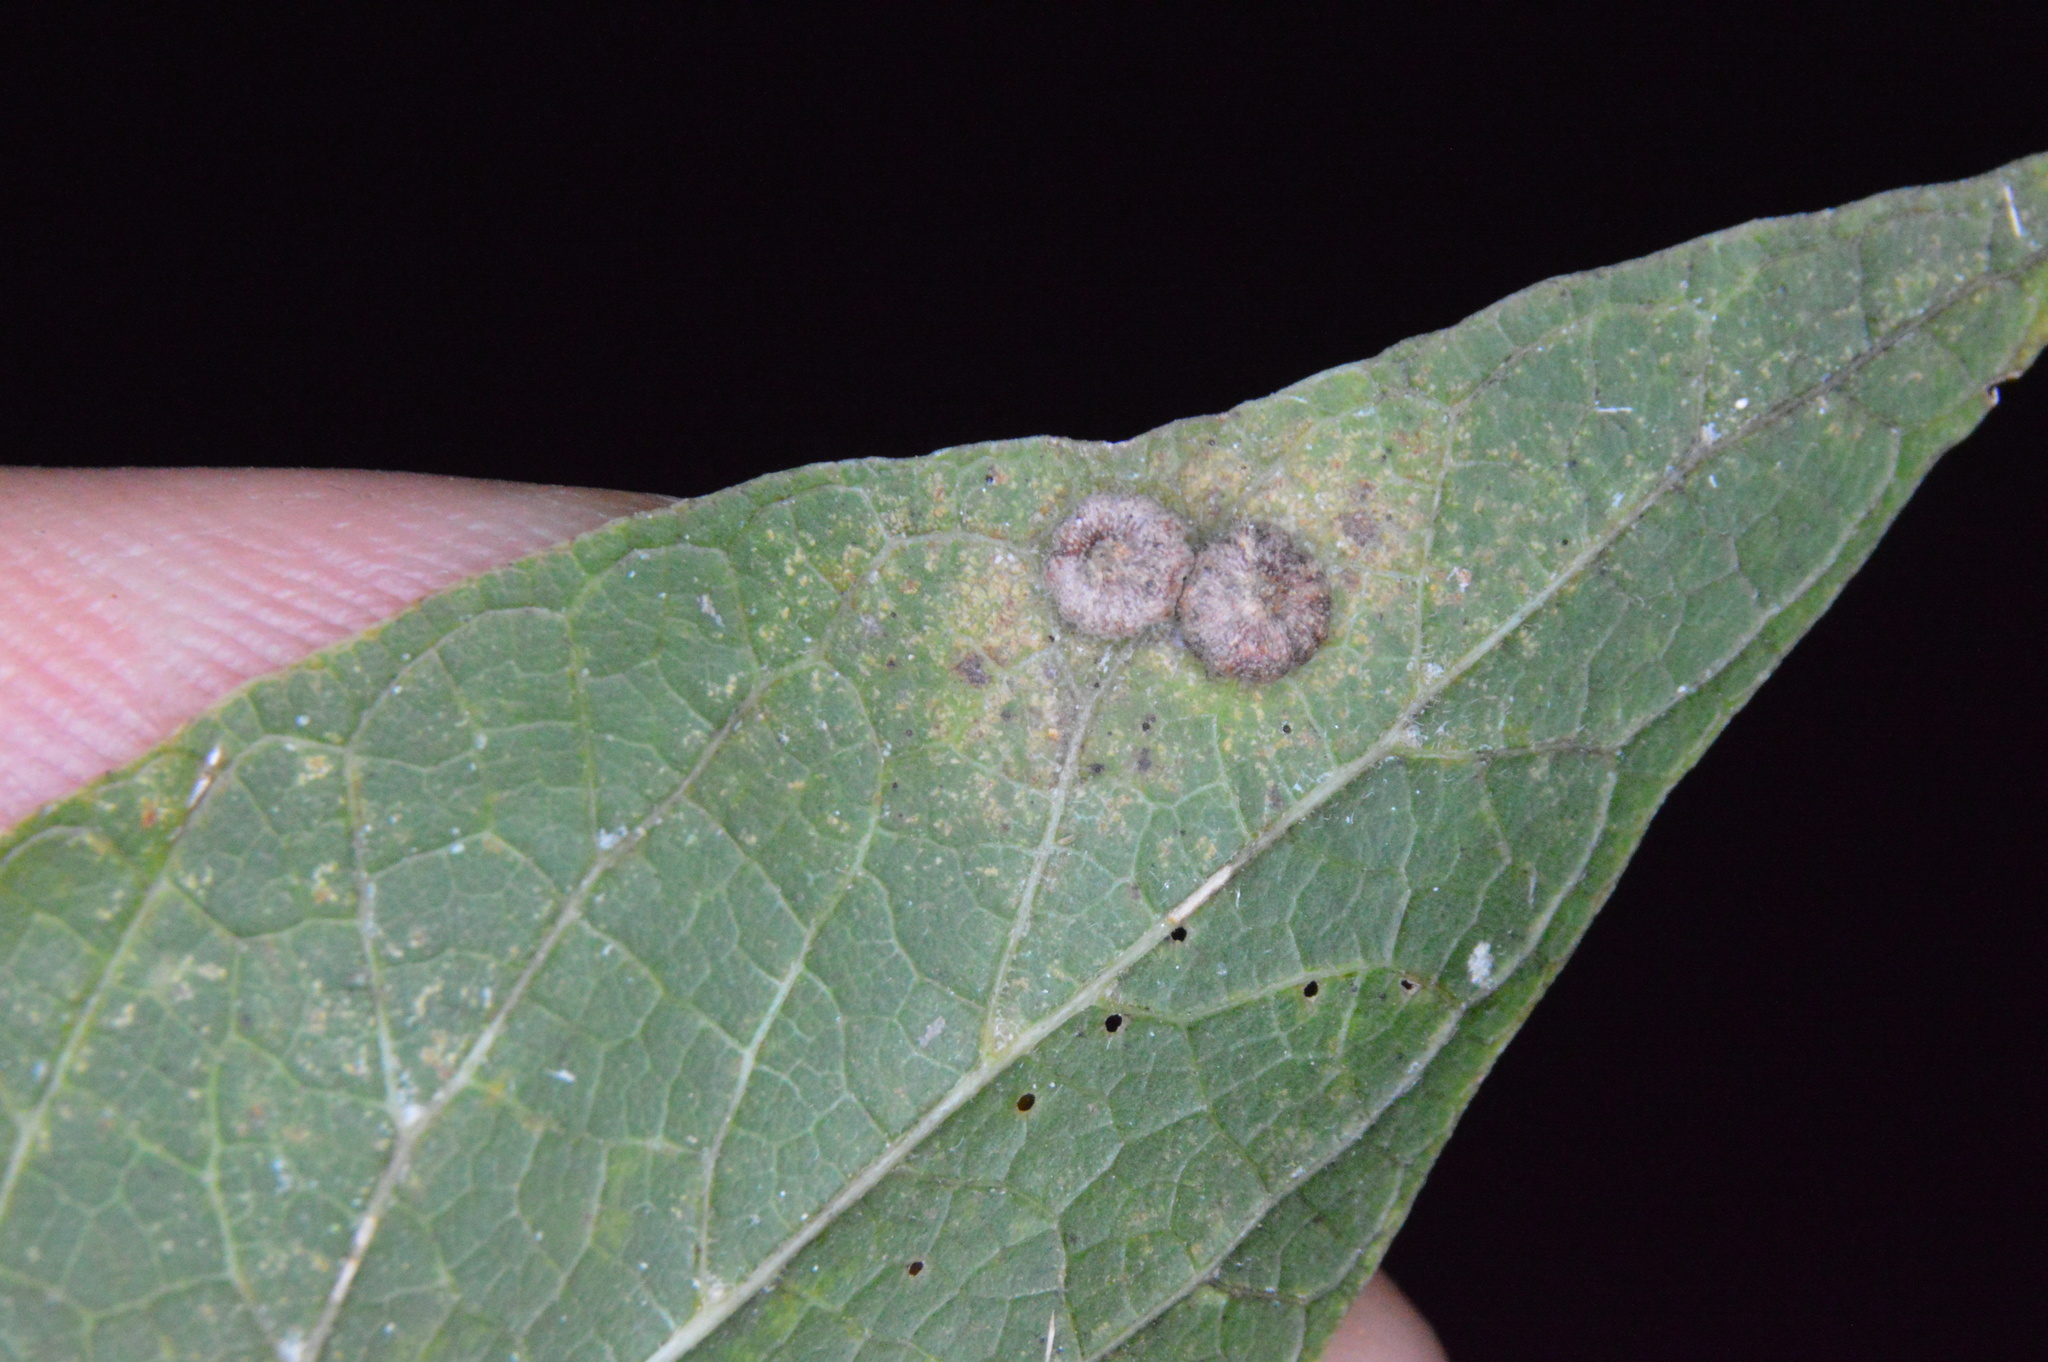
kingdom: Animalia
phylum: Arthropoda
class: Insecta
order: Diptera
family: Cecidomyiidae
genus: Celticecis
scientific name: Celticecis capsularis
